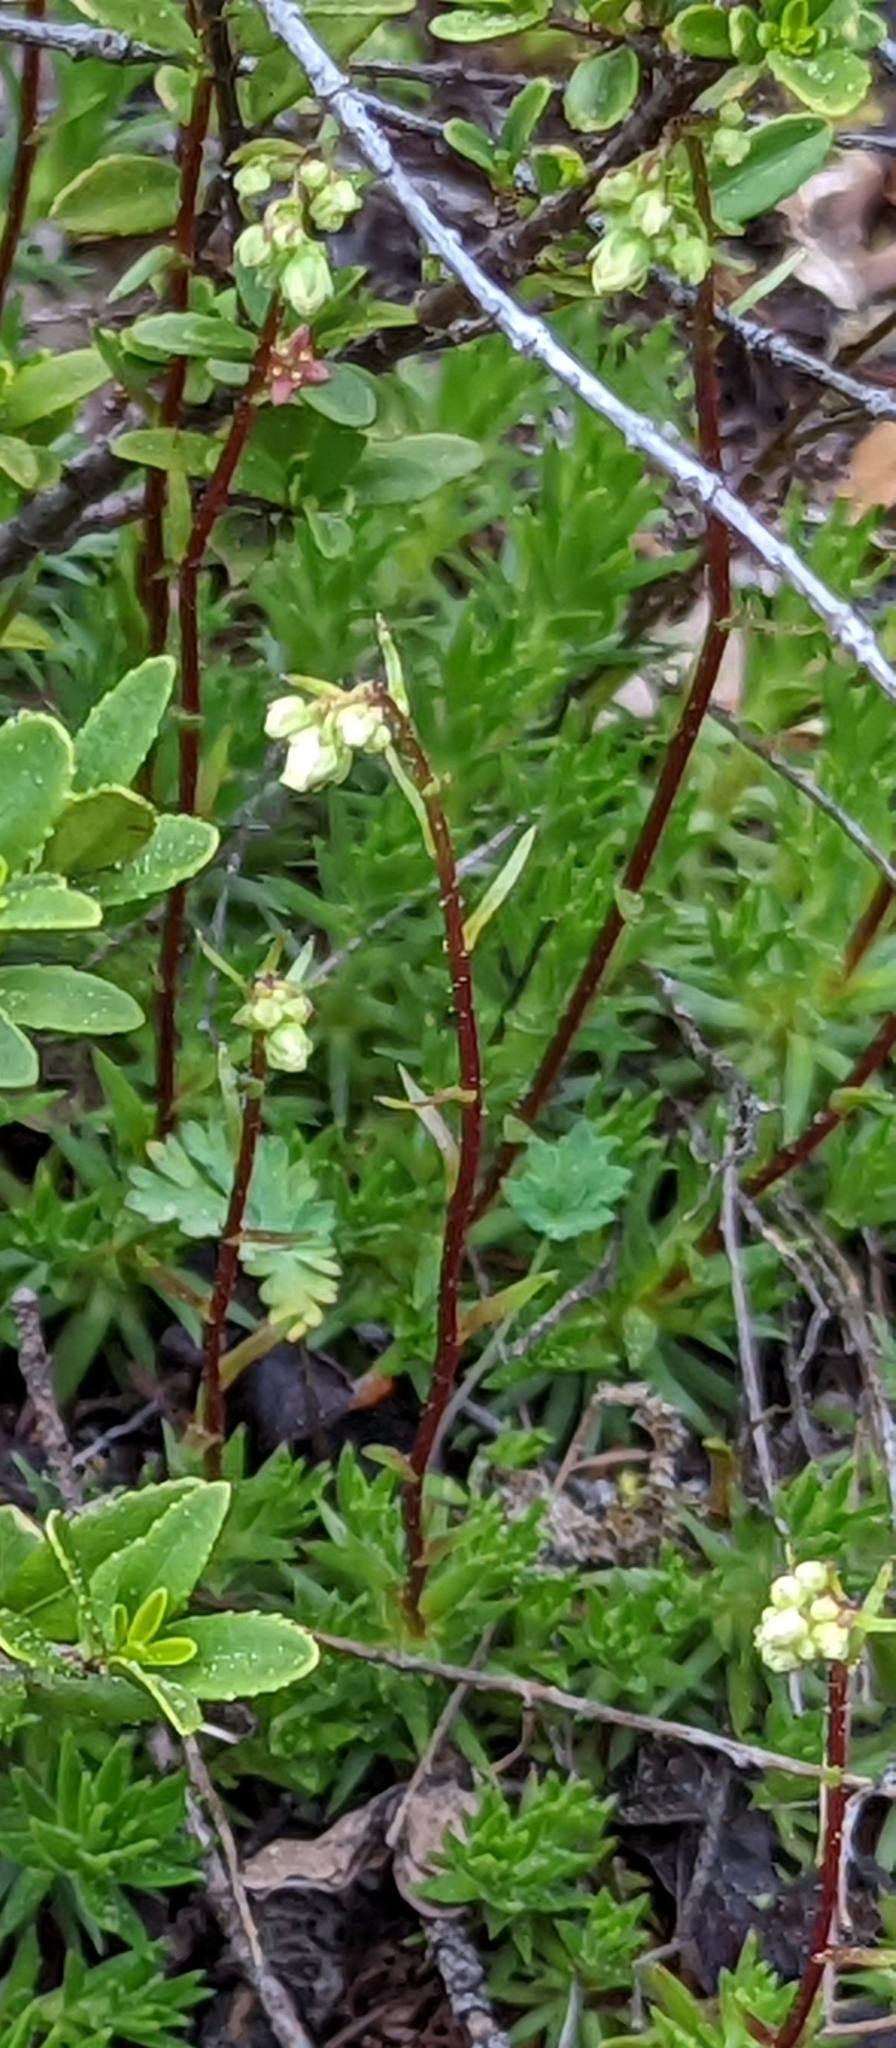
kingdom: Plantae
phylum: Tracheophyta
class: Magnoliopsida
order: Rosales
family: Rosaceae
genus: Luetkea
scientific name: Luetkea pectinata
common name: Partridgefoot
